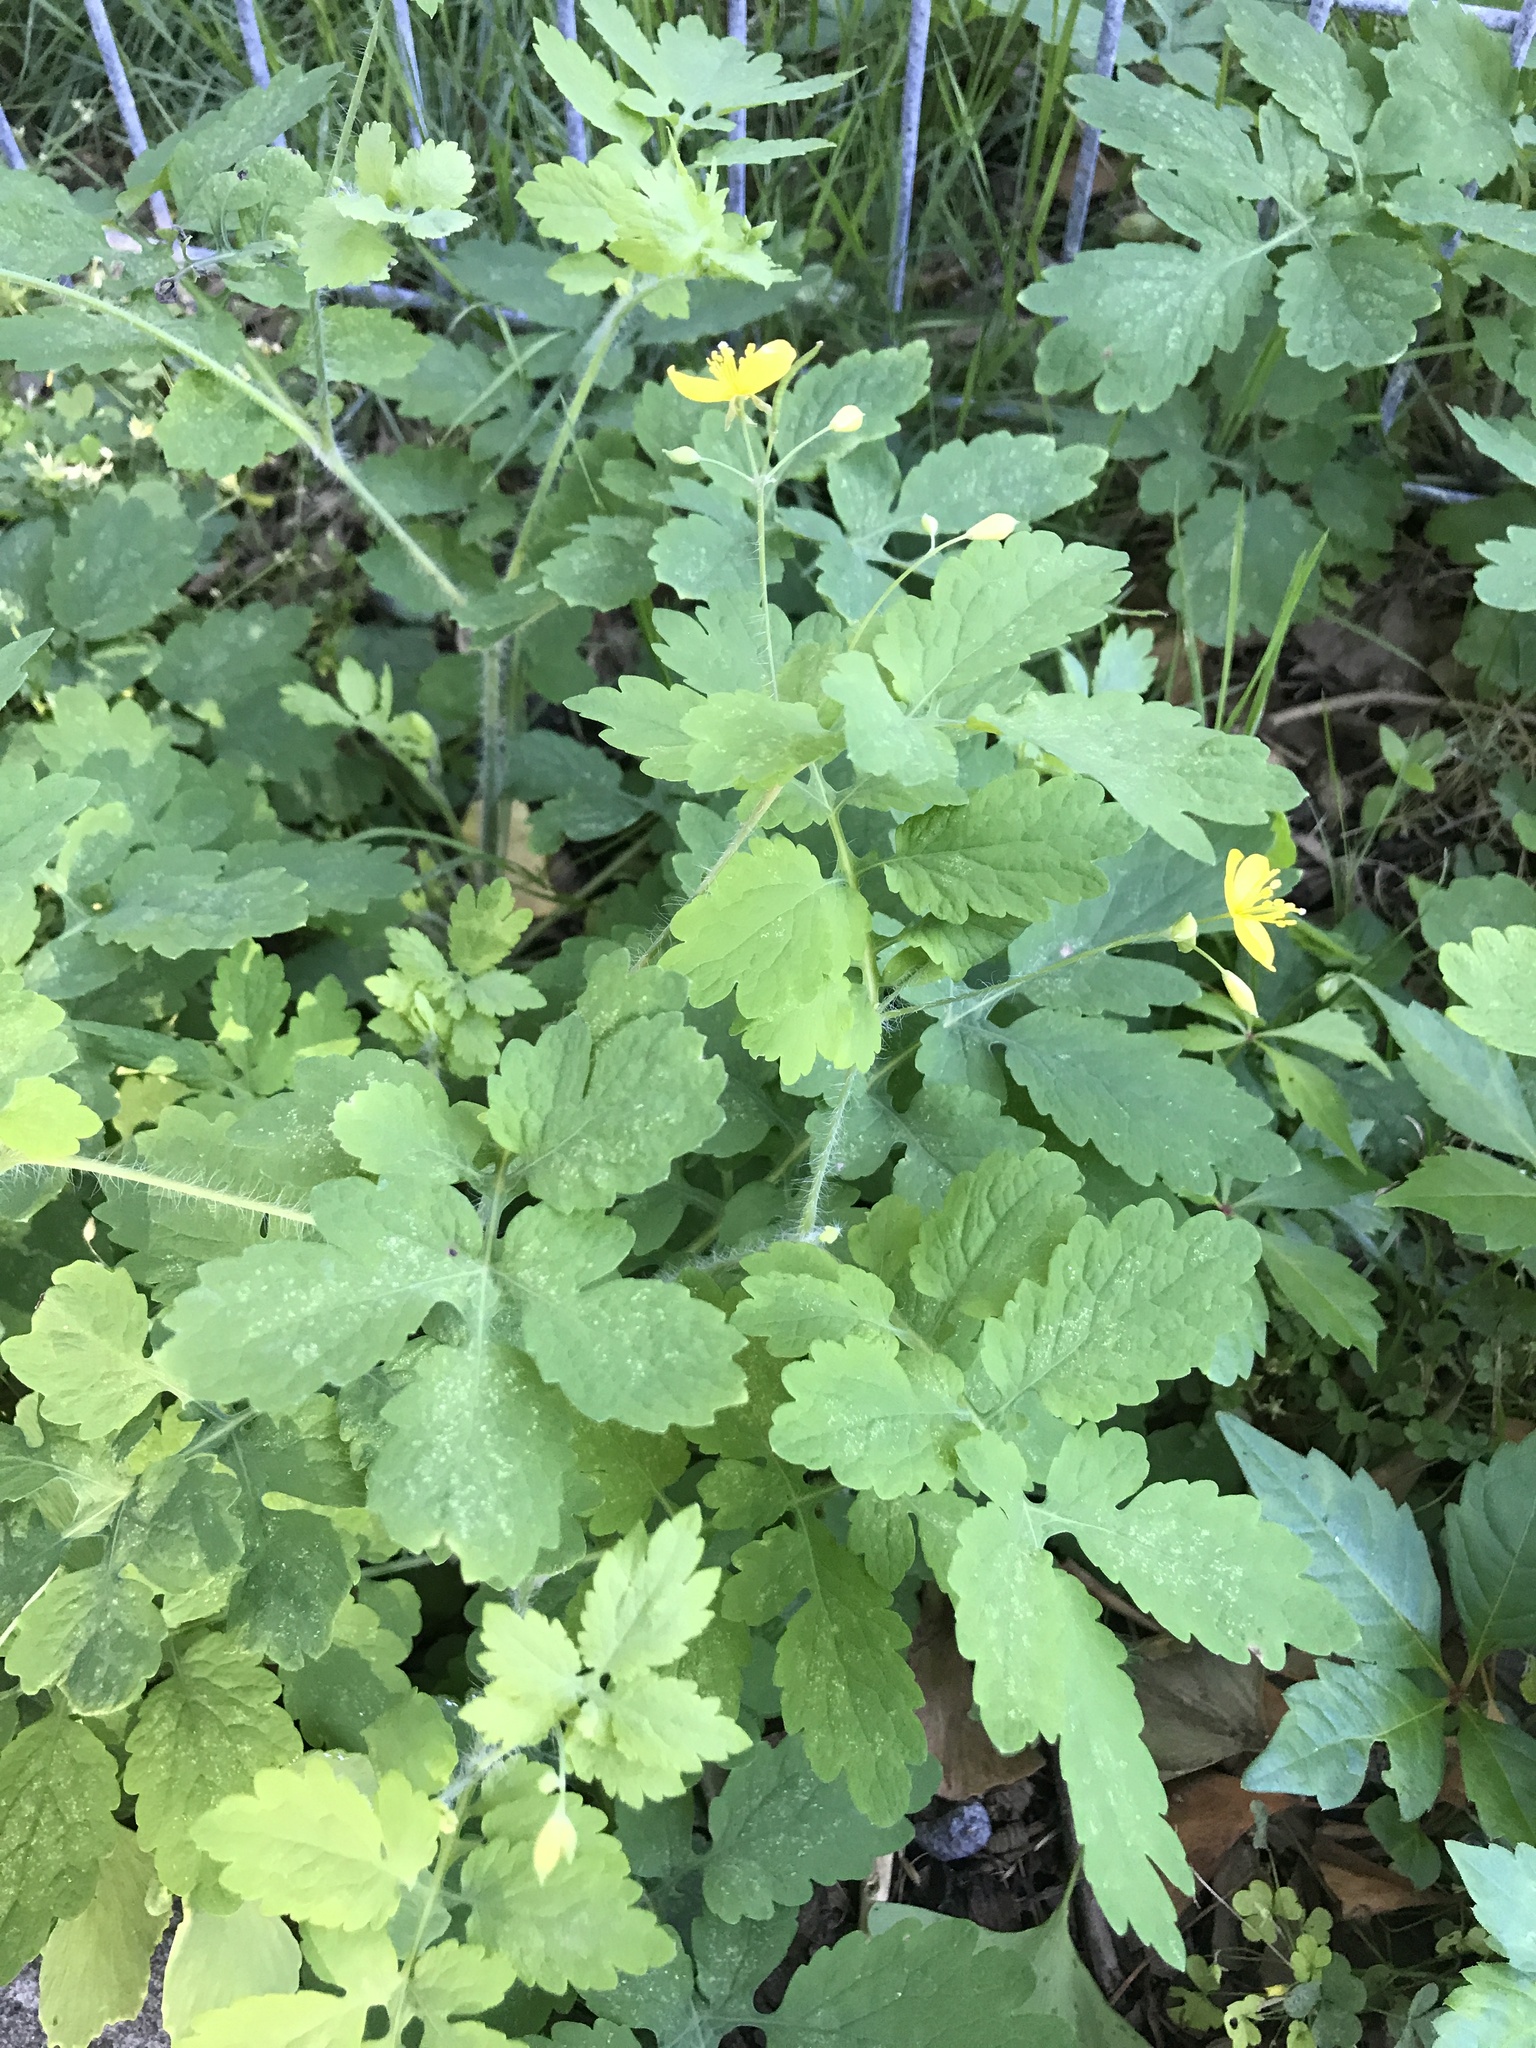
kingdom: Plantae
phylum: Tracheophyta
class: Magnoliopsida
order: Ranunculales
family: Papaveraceae
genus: Chelidonium
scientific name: Chelidonium majus
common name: Greater celandine
